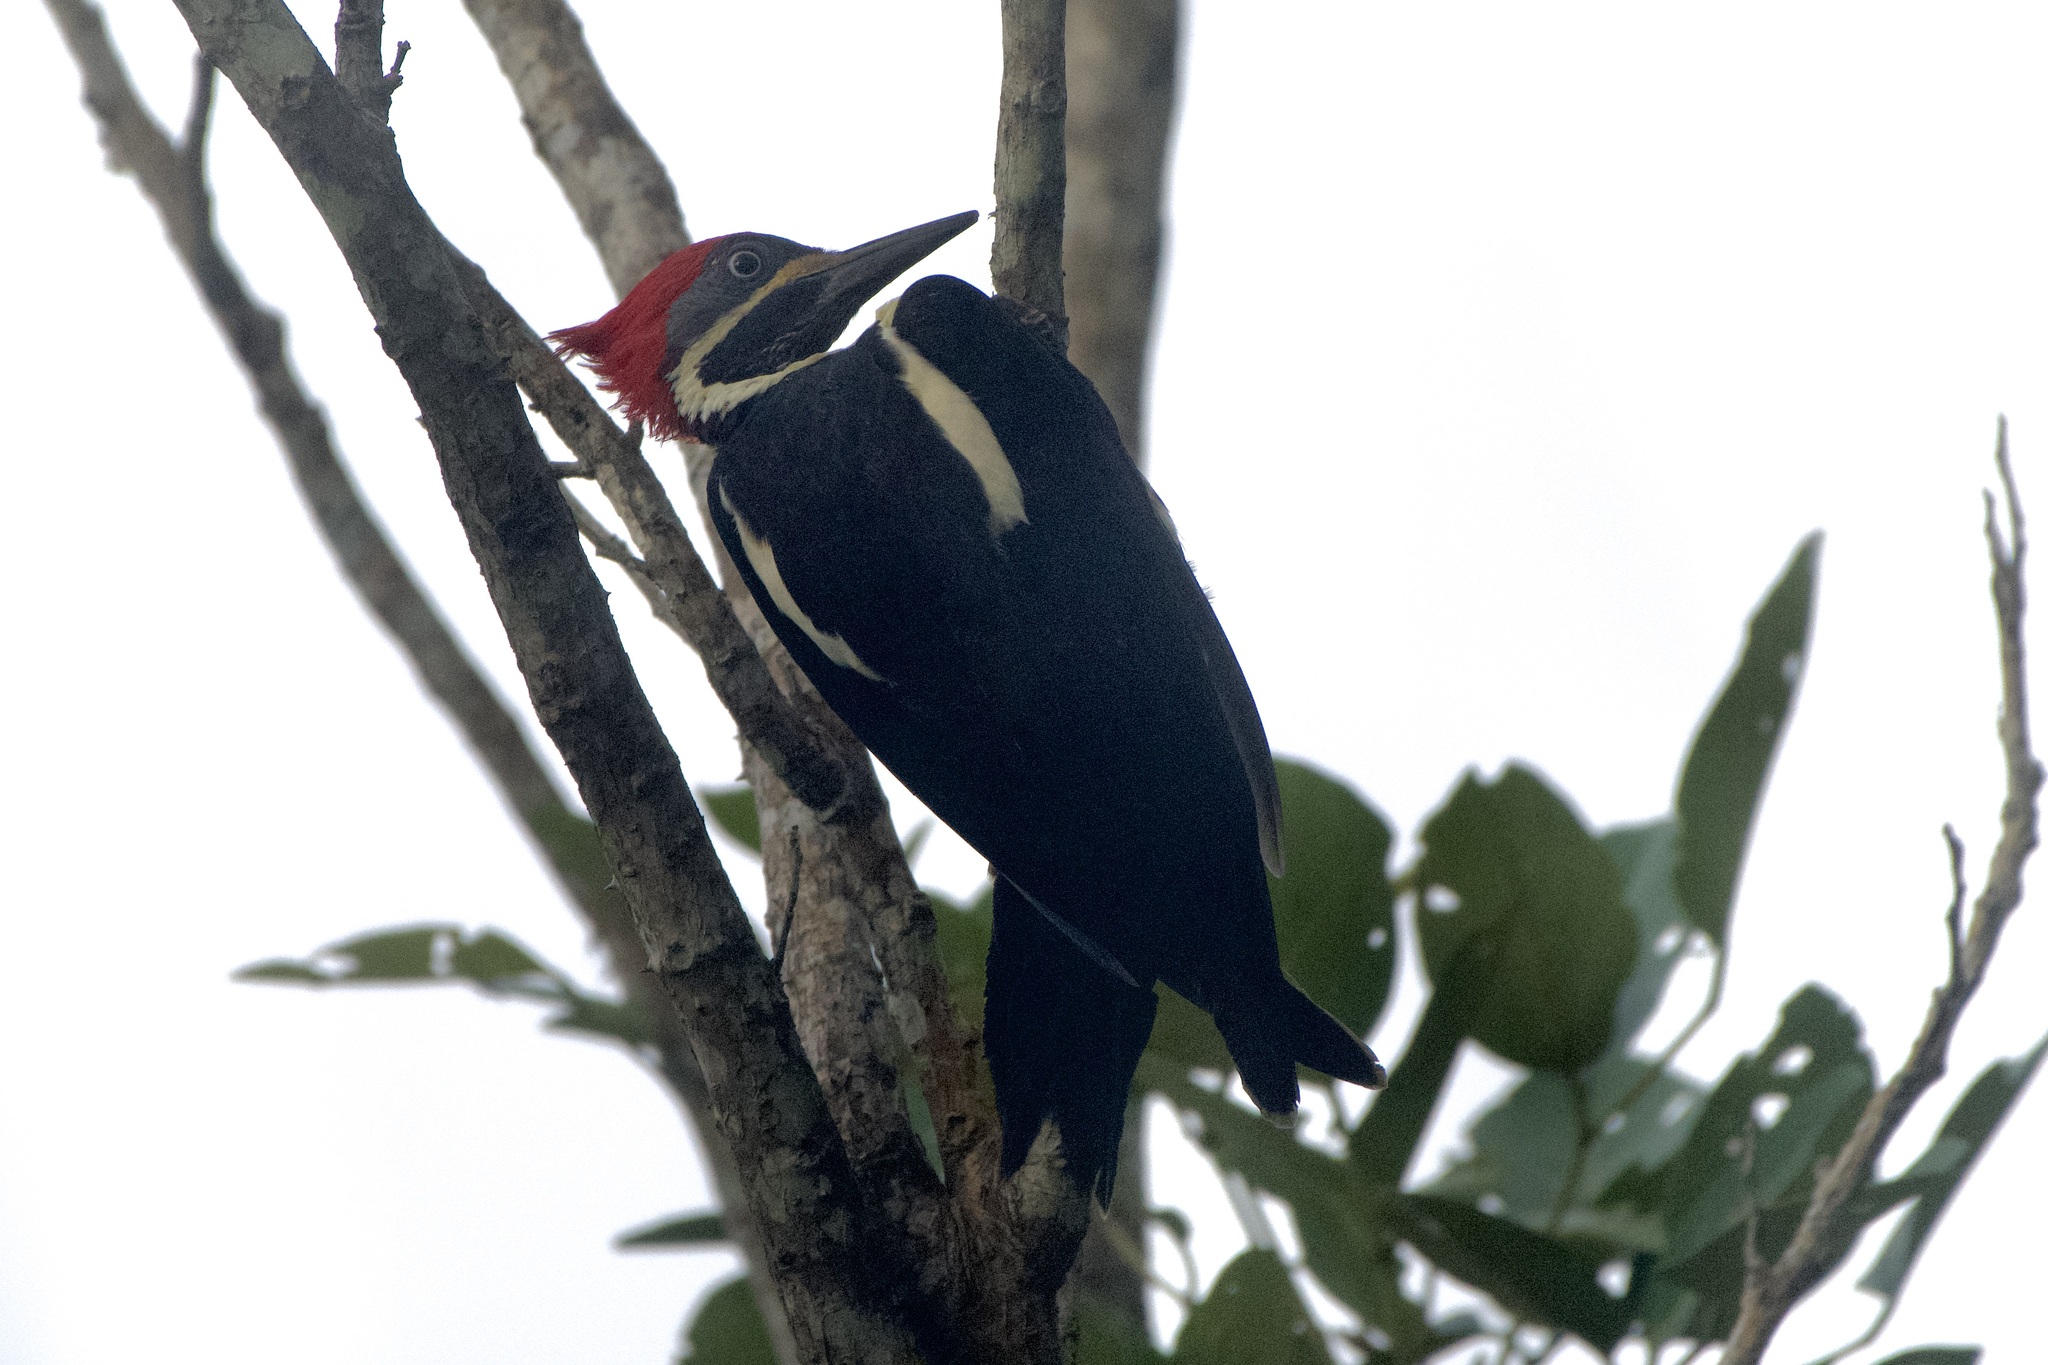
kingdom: Animalia
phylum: Chordata
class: Aves
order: Piciformes
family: Picidae
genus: Dryocopus
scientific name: Dryocopus lineatus
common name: Lineated woodpecker
